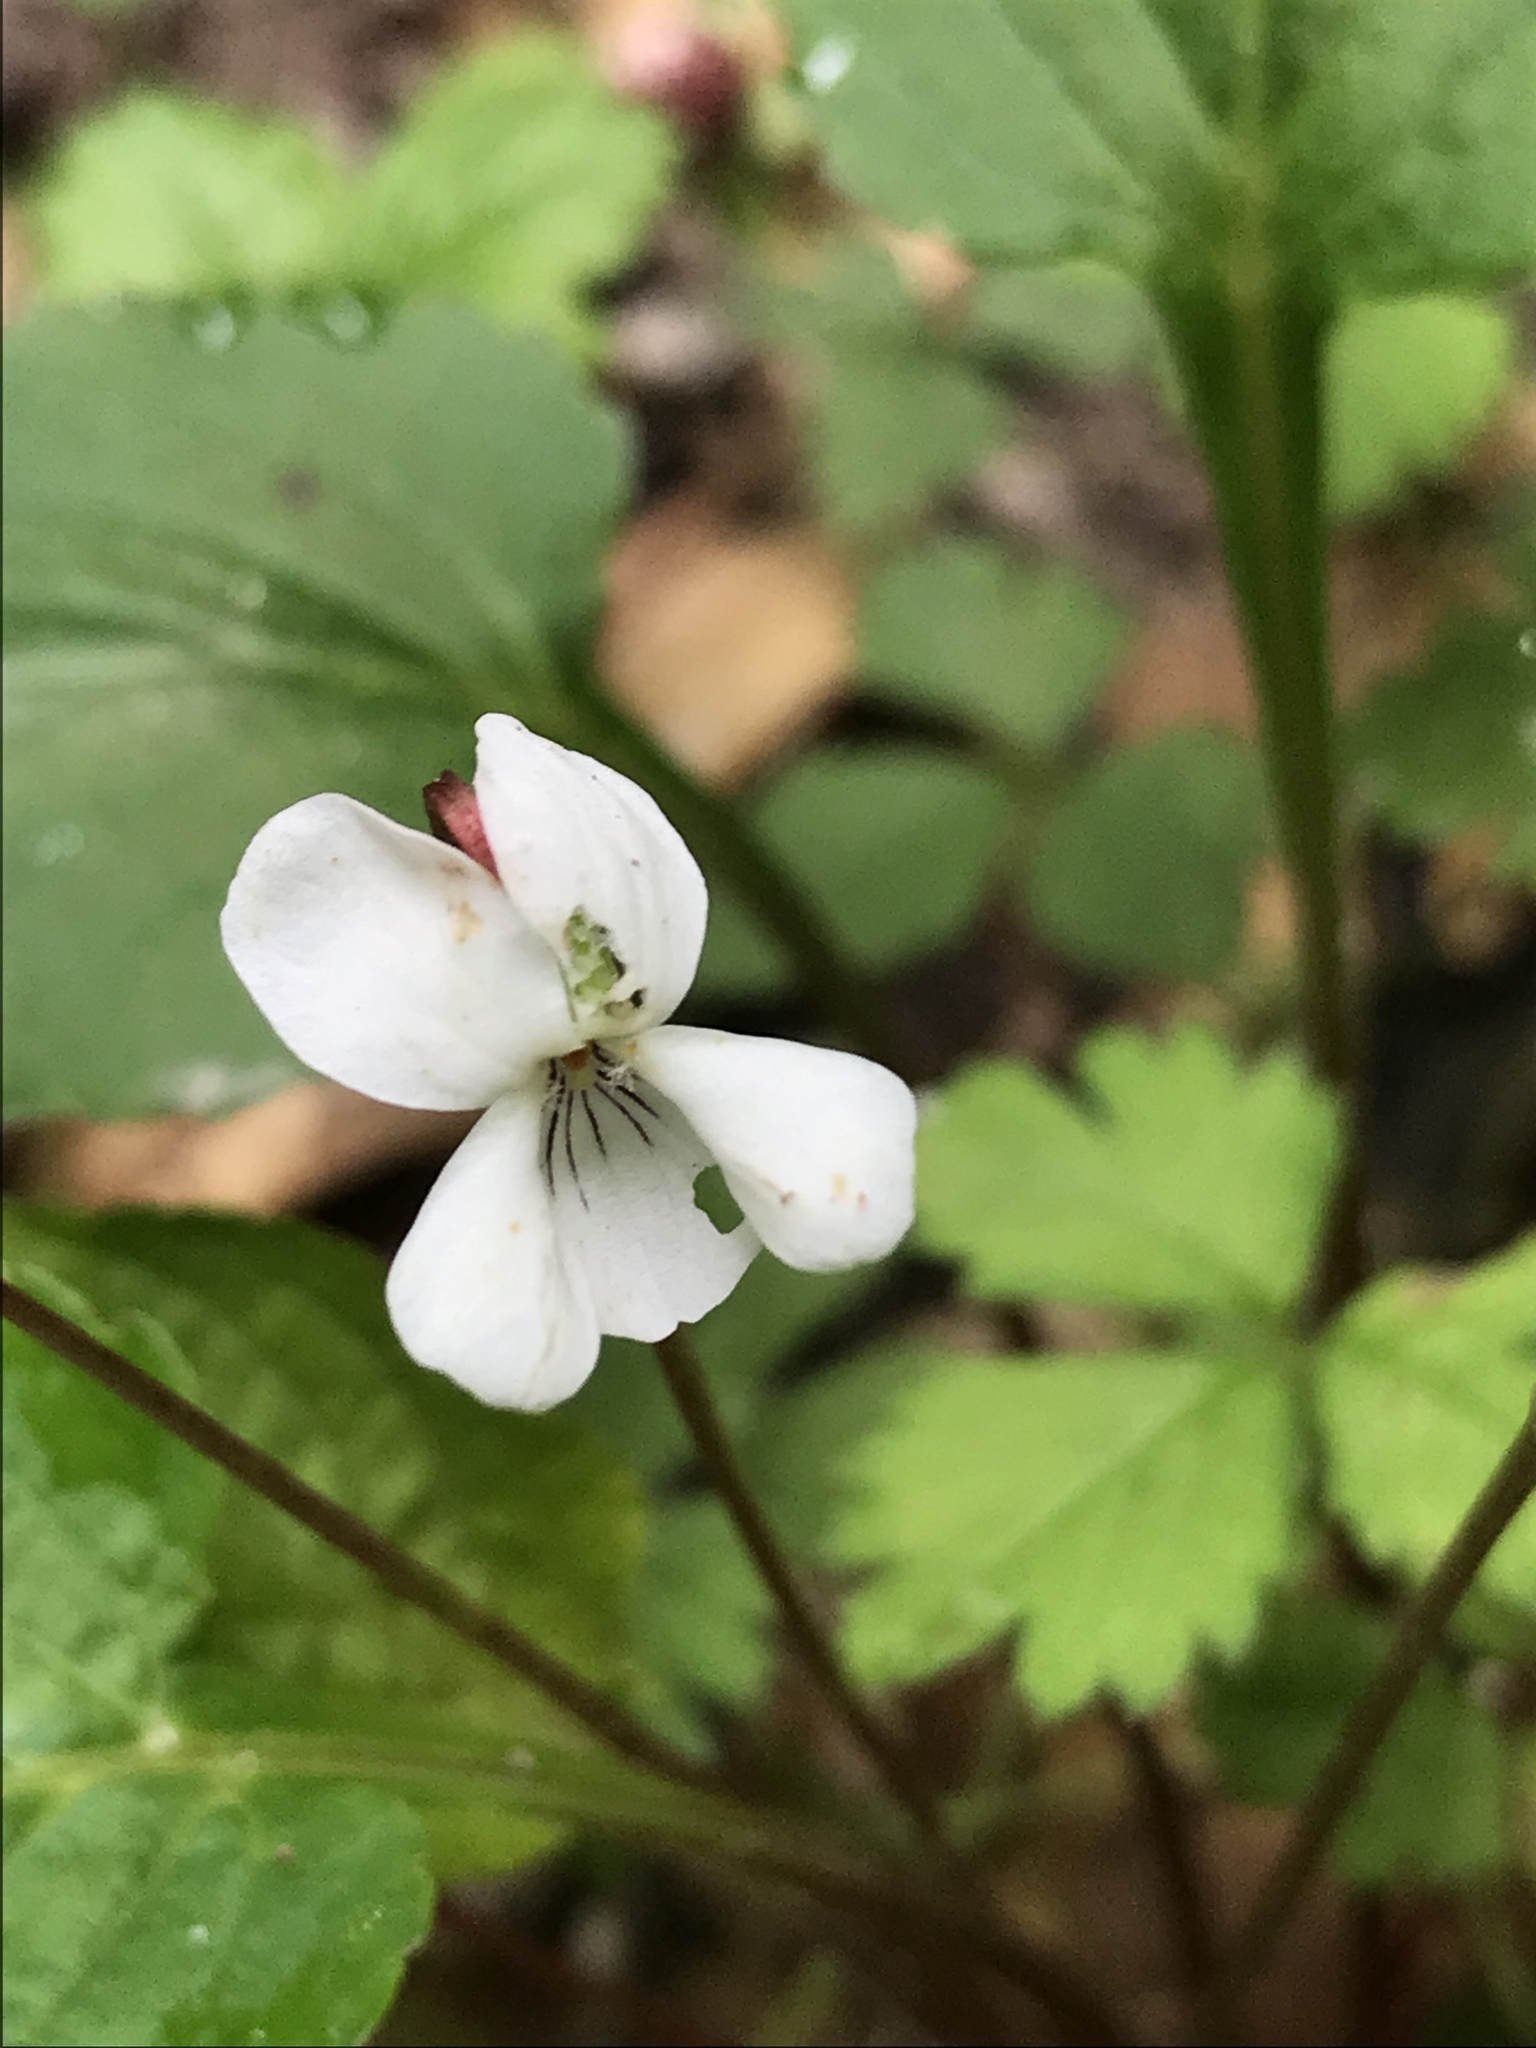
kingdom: Plantae
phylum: Tracheophyta
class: Magnoliopsida
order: Malpighiales
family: Violaceae
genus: Viola
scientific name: Viola primulifolia
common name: Primrose-leaf violet
